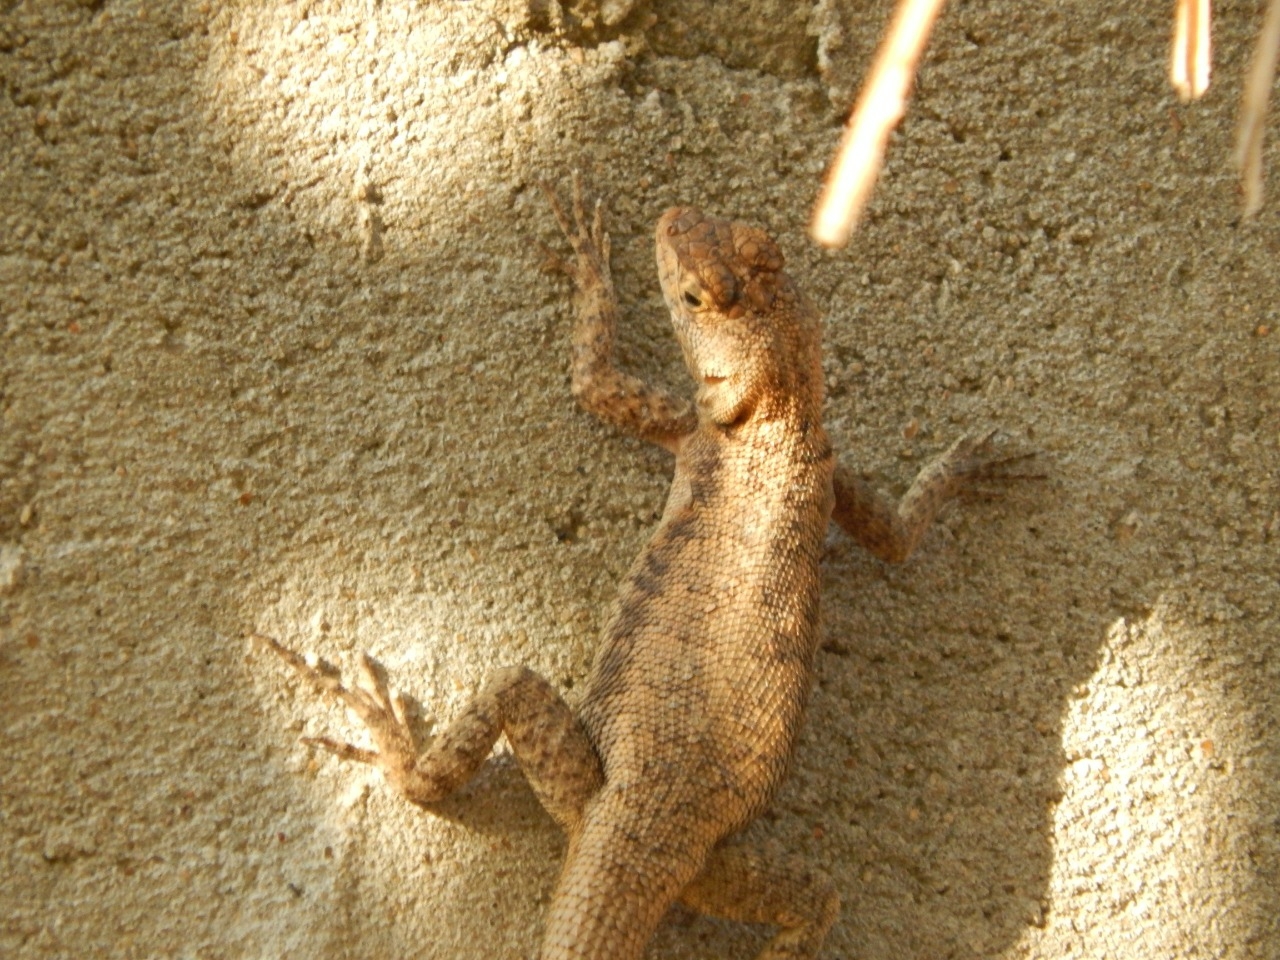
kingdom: Animalia
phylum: Chordata
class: Squamata
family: Tropiduridae
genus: Tropidurus
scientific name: Tropidurus hispidus
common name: Peters' lava lizard
